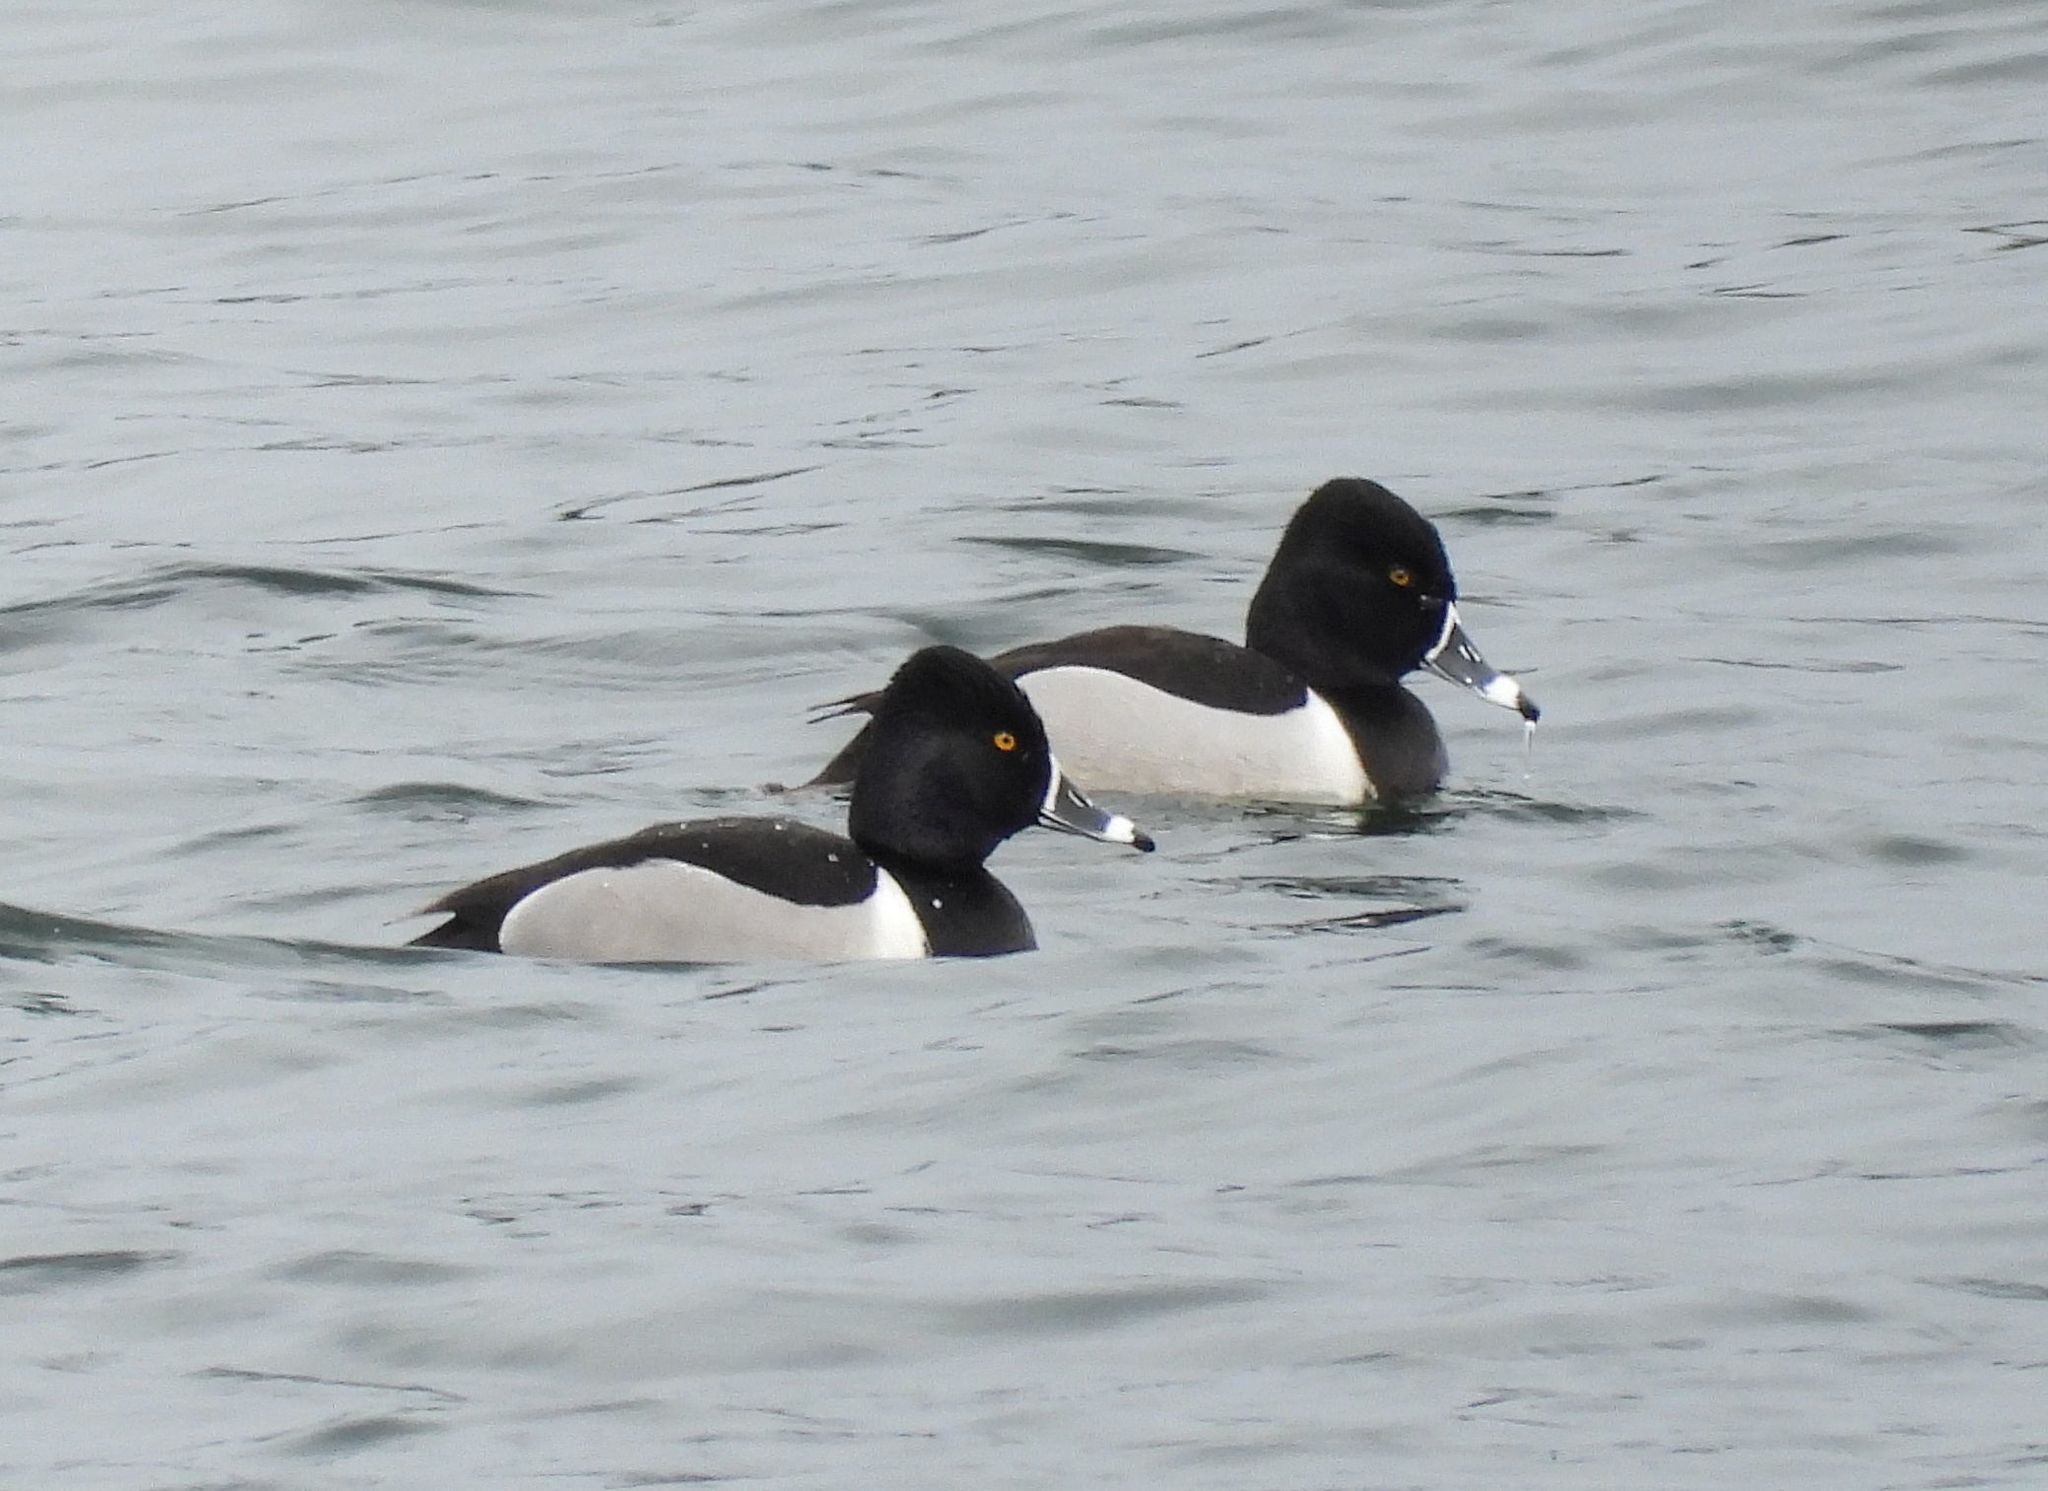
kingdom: Animalia
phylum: Chordata
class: Aves
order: Anseriformes
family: Anatidae
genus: Aythya
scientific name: Aythya collaris
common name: Ring-necked duck
